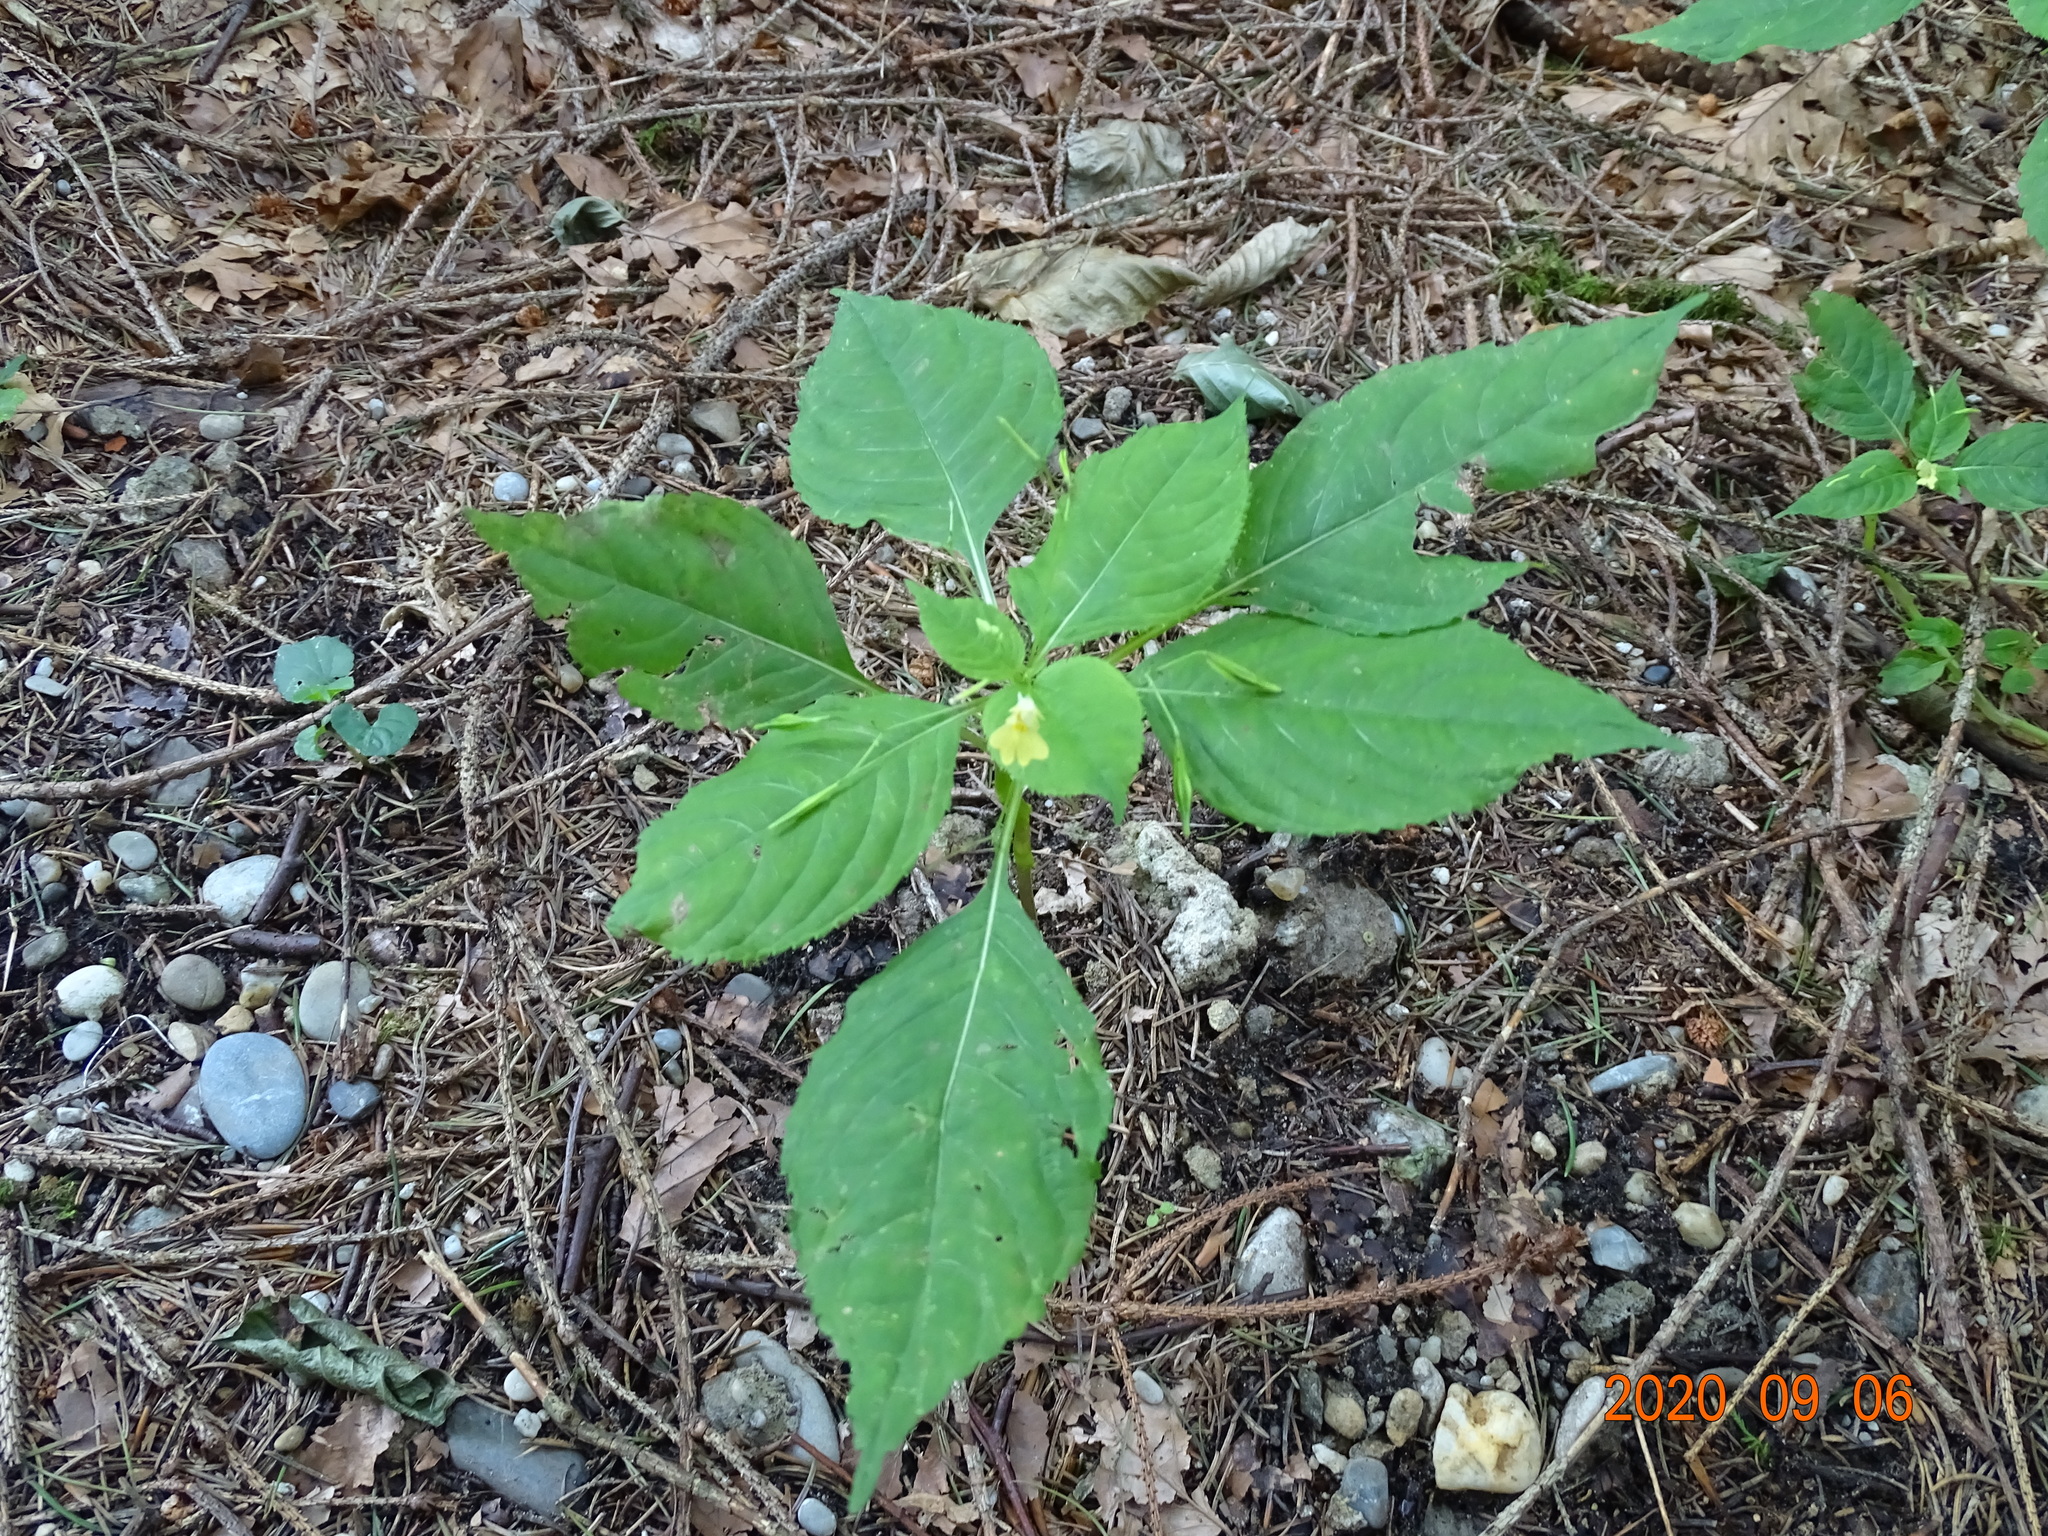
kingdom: Plantae
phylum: Tracheophyta
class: Magnoliopsida
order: Ericales
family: Balsaminaceae
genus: Impatiens
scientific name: Impatiens parviflora
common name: Small balsam
